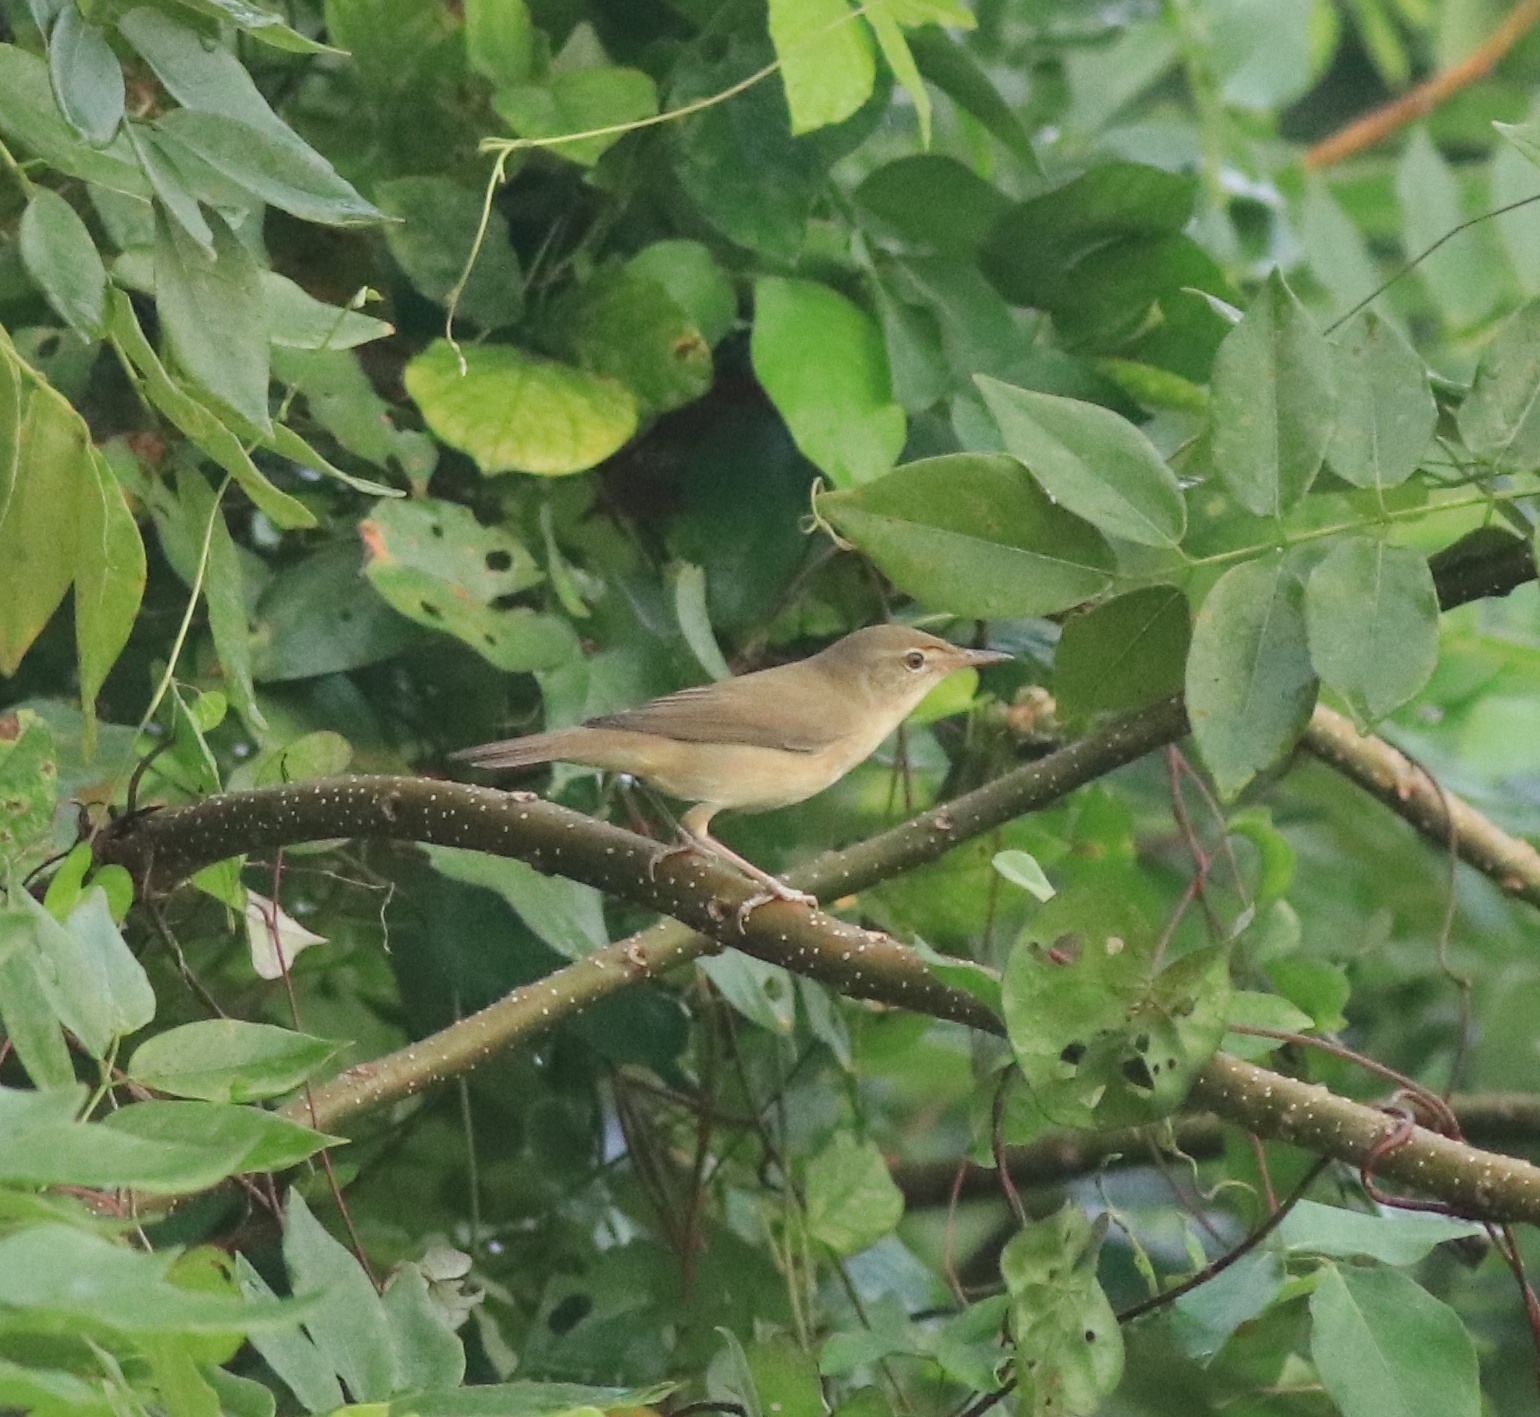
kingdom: Animalia
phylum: Chordata
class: Aves
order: Passeriformes
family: Acrocephalidae
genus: Acrocephalus
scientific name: Acrocephalus dumetorum
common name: Blyth's reed warbler
